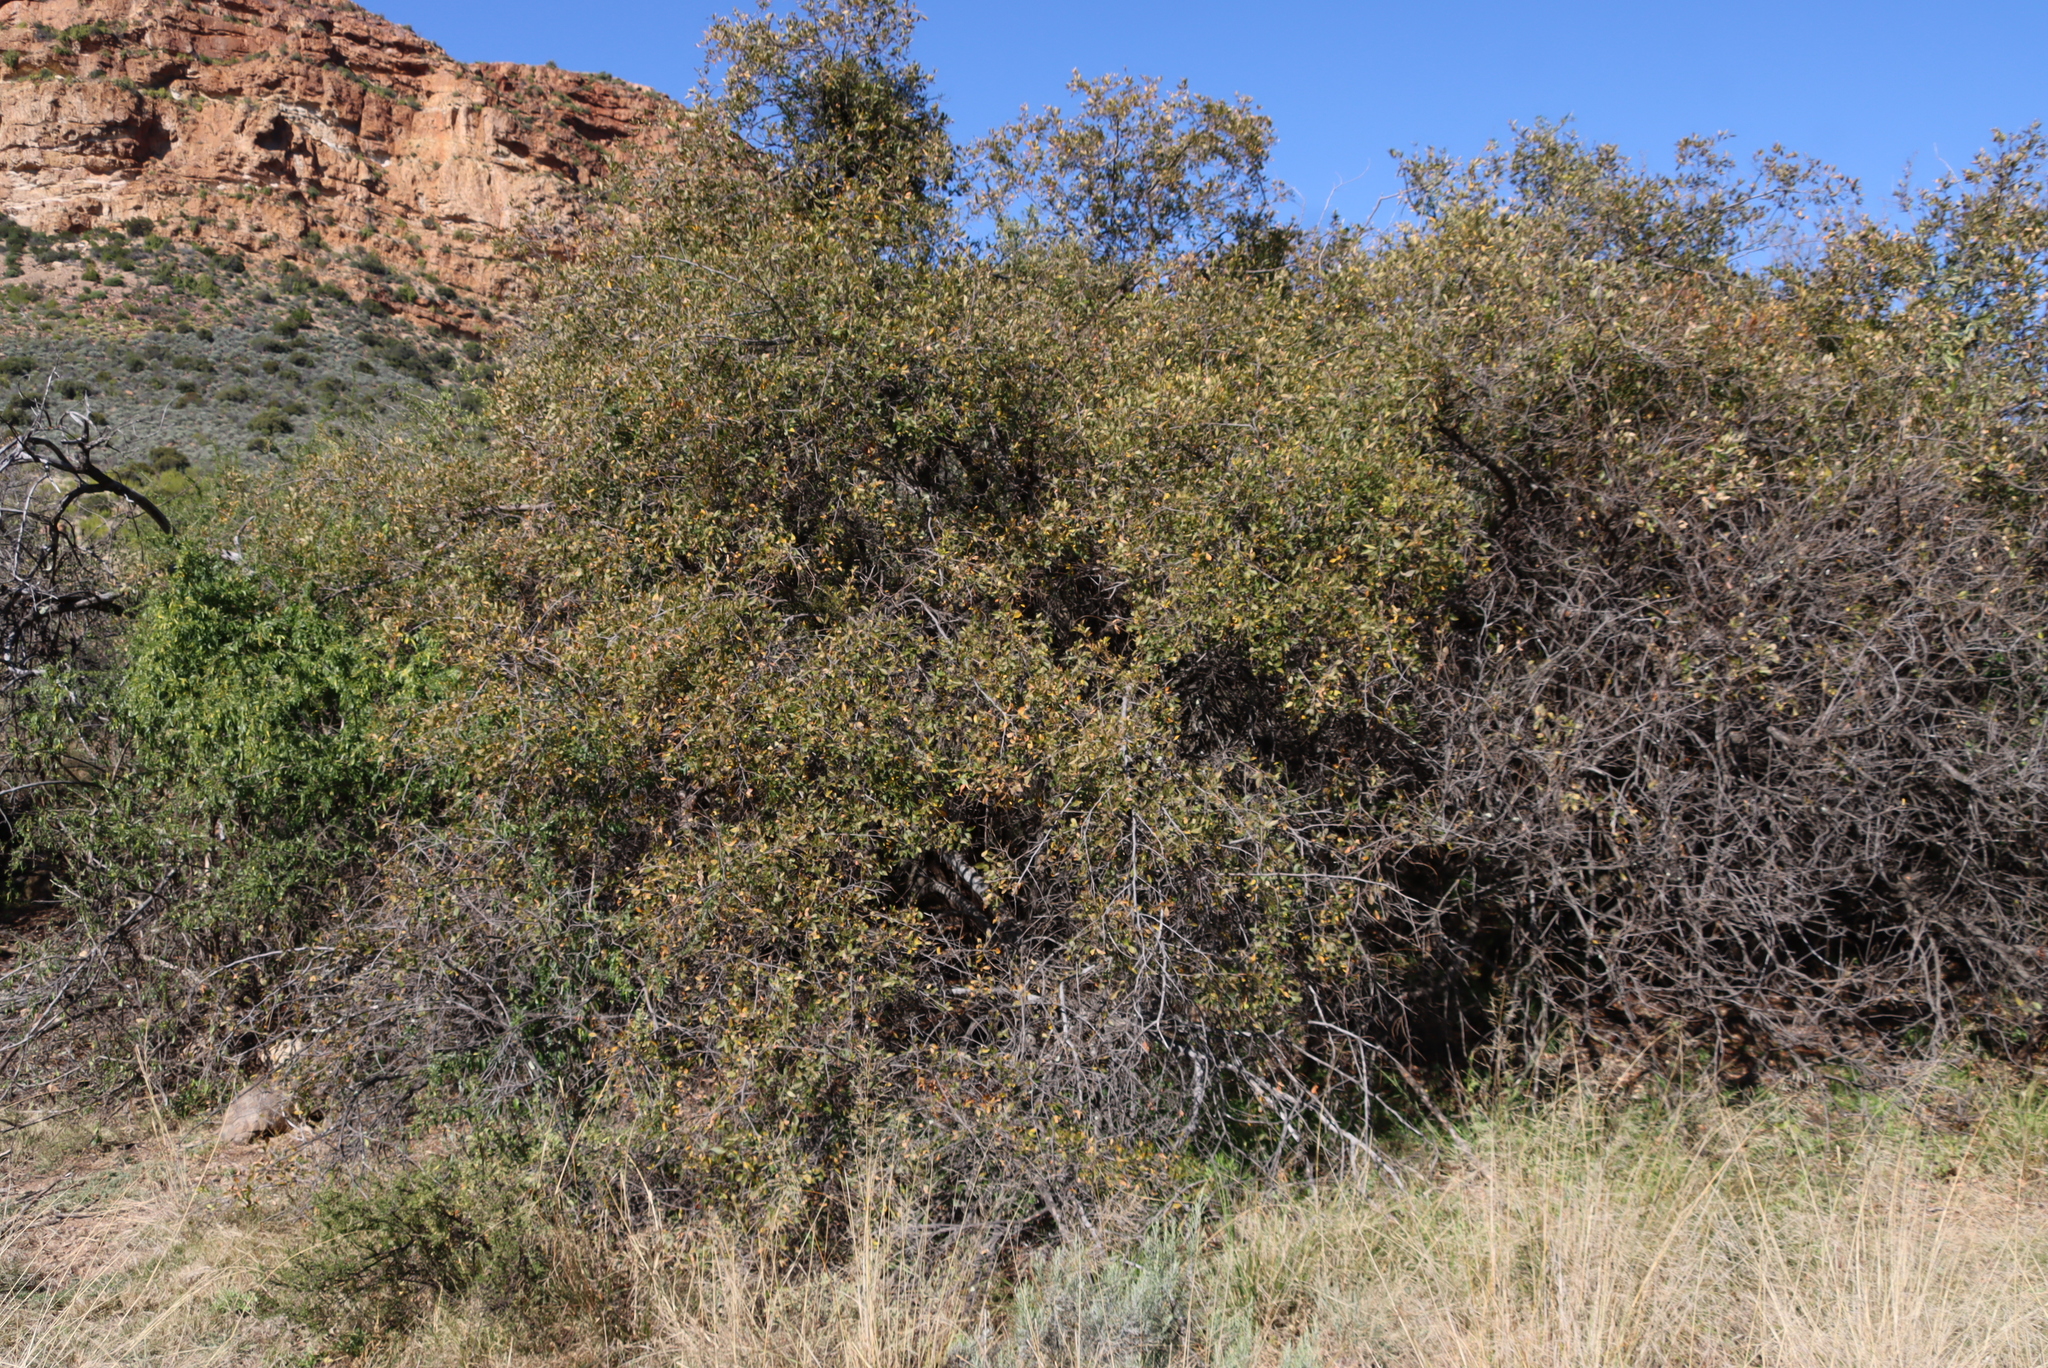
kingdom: Plantae
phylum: Tracheophyta
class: Magnoliopsida
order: Sapindales
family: Anacardiaceae
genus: Searsia
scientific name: Searsia pyroides
